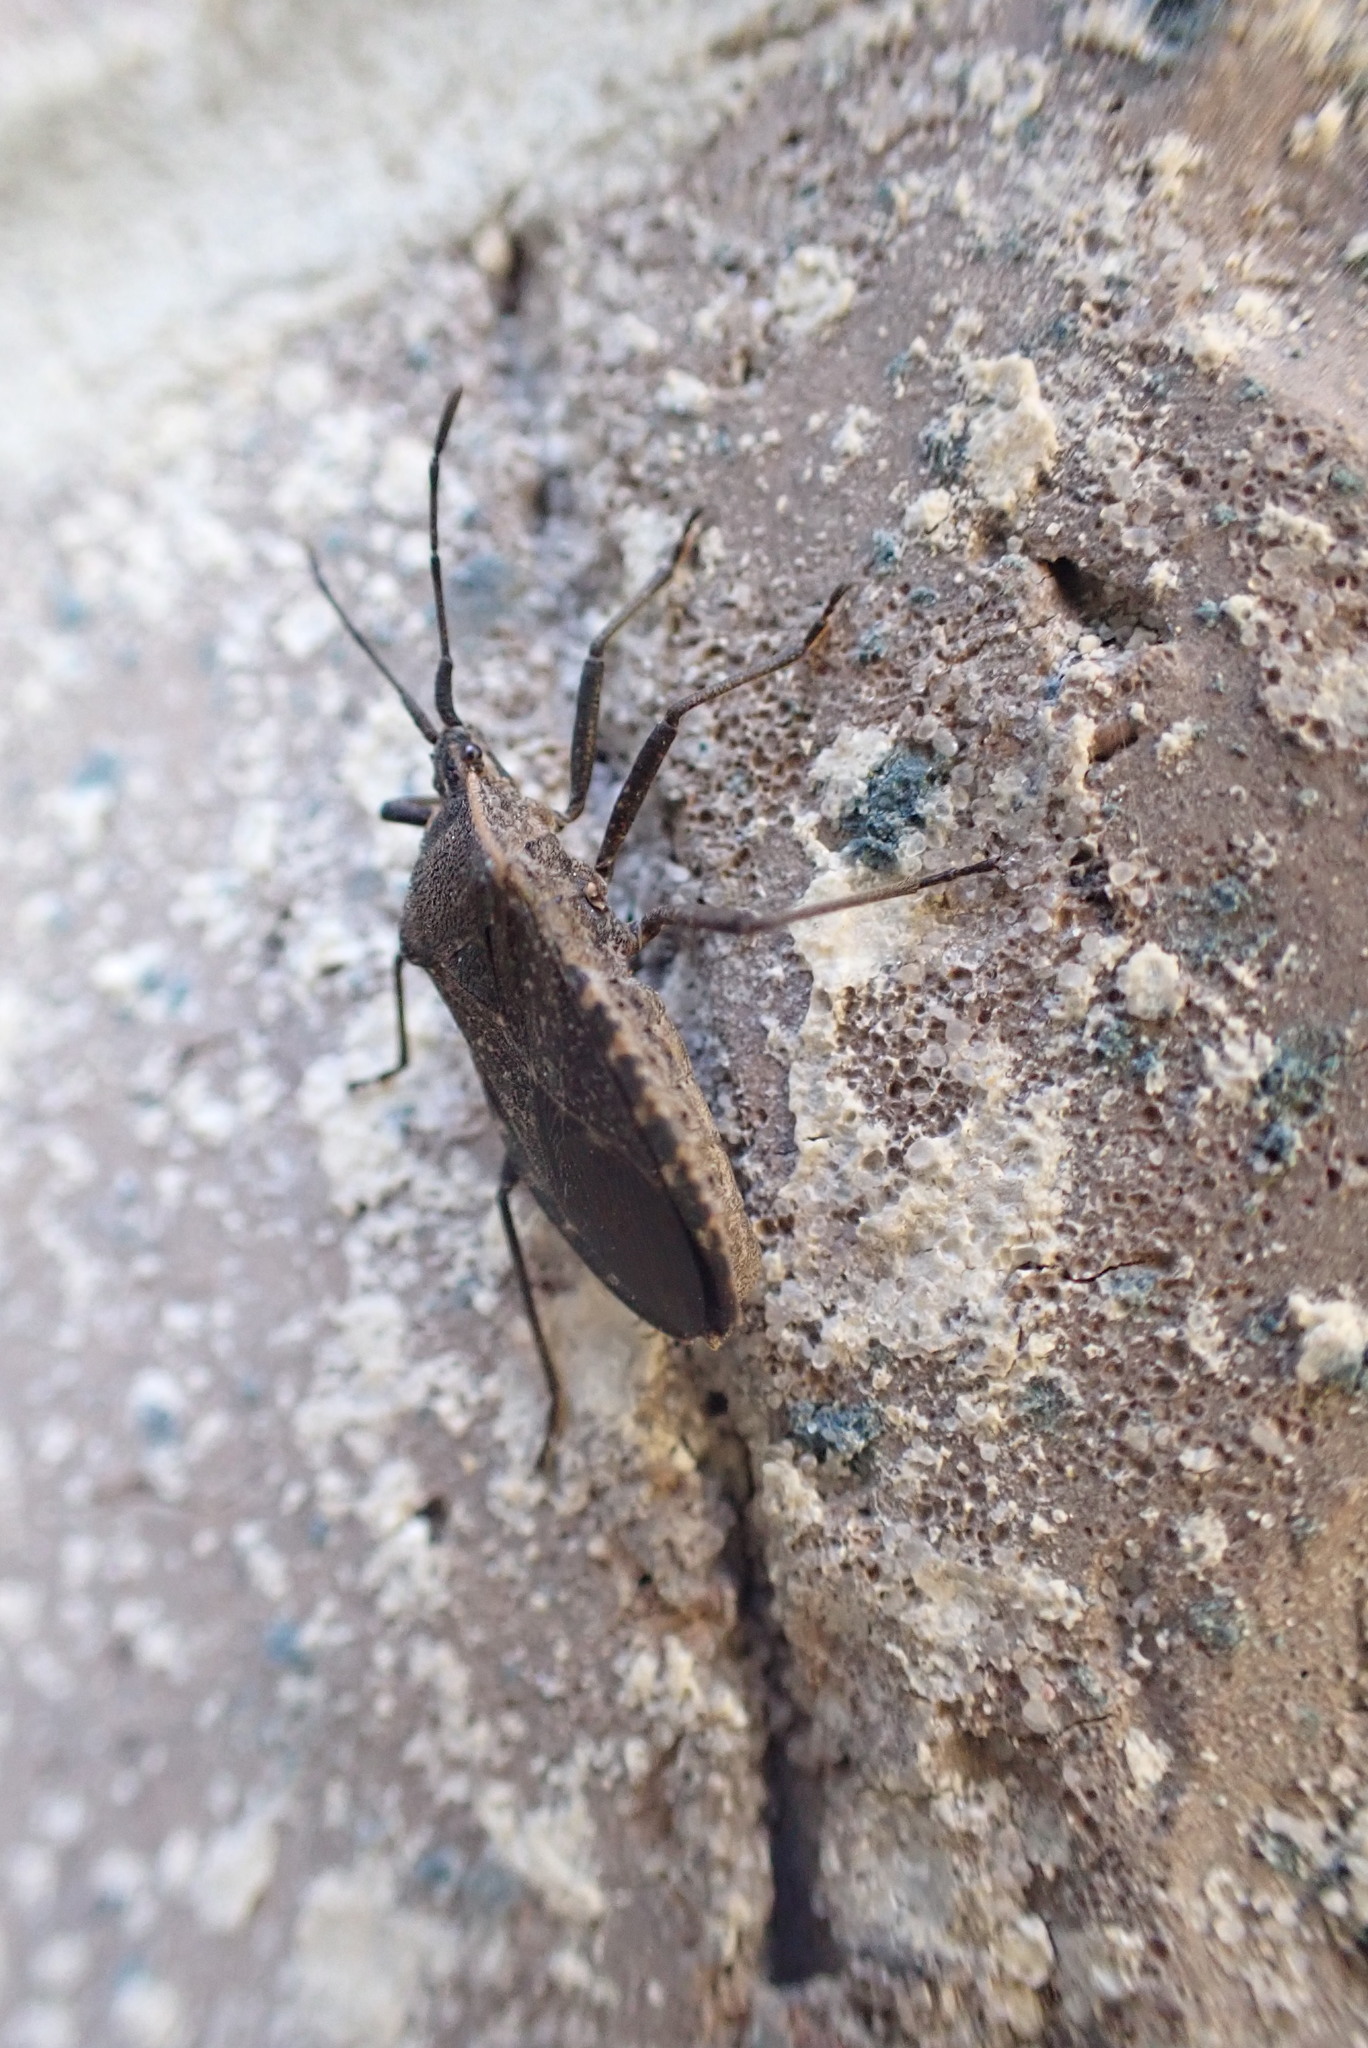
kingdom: Animalia
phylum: Arthropoda
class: Insecta
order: Hemiptera
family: Coreidae
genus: Anasa
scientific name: Anasa tristis
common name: Squash bug
